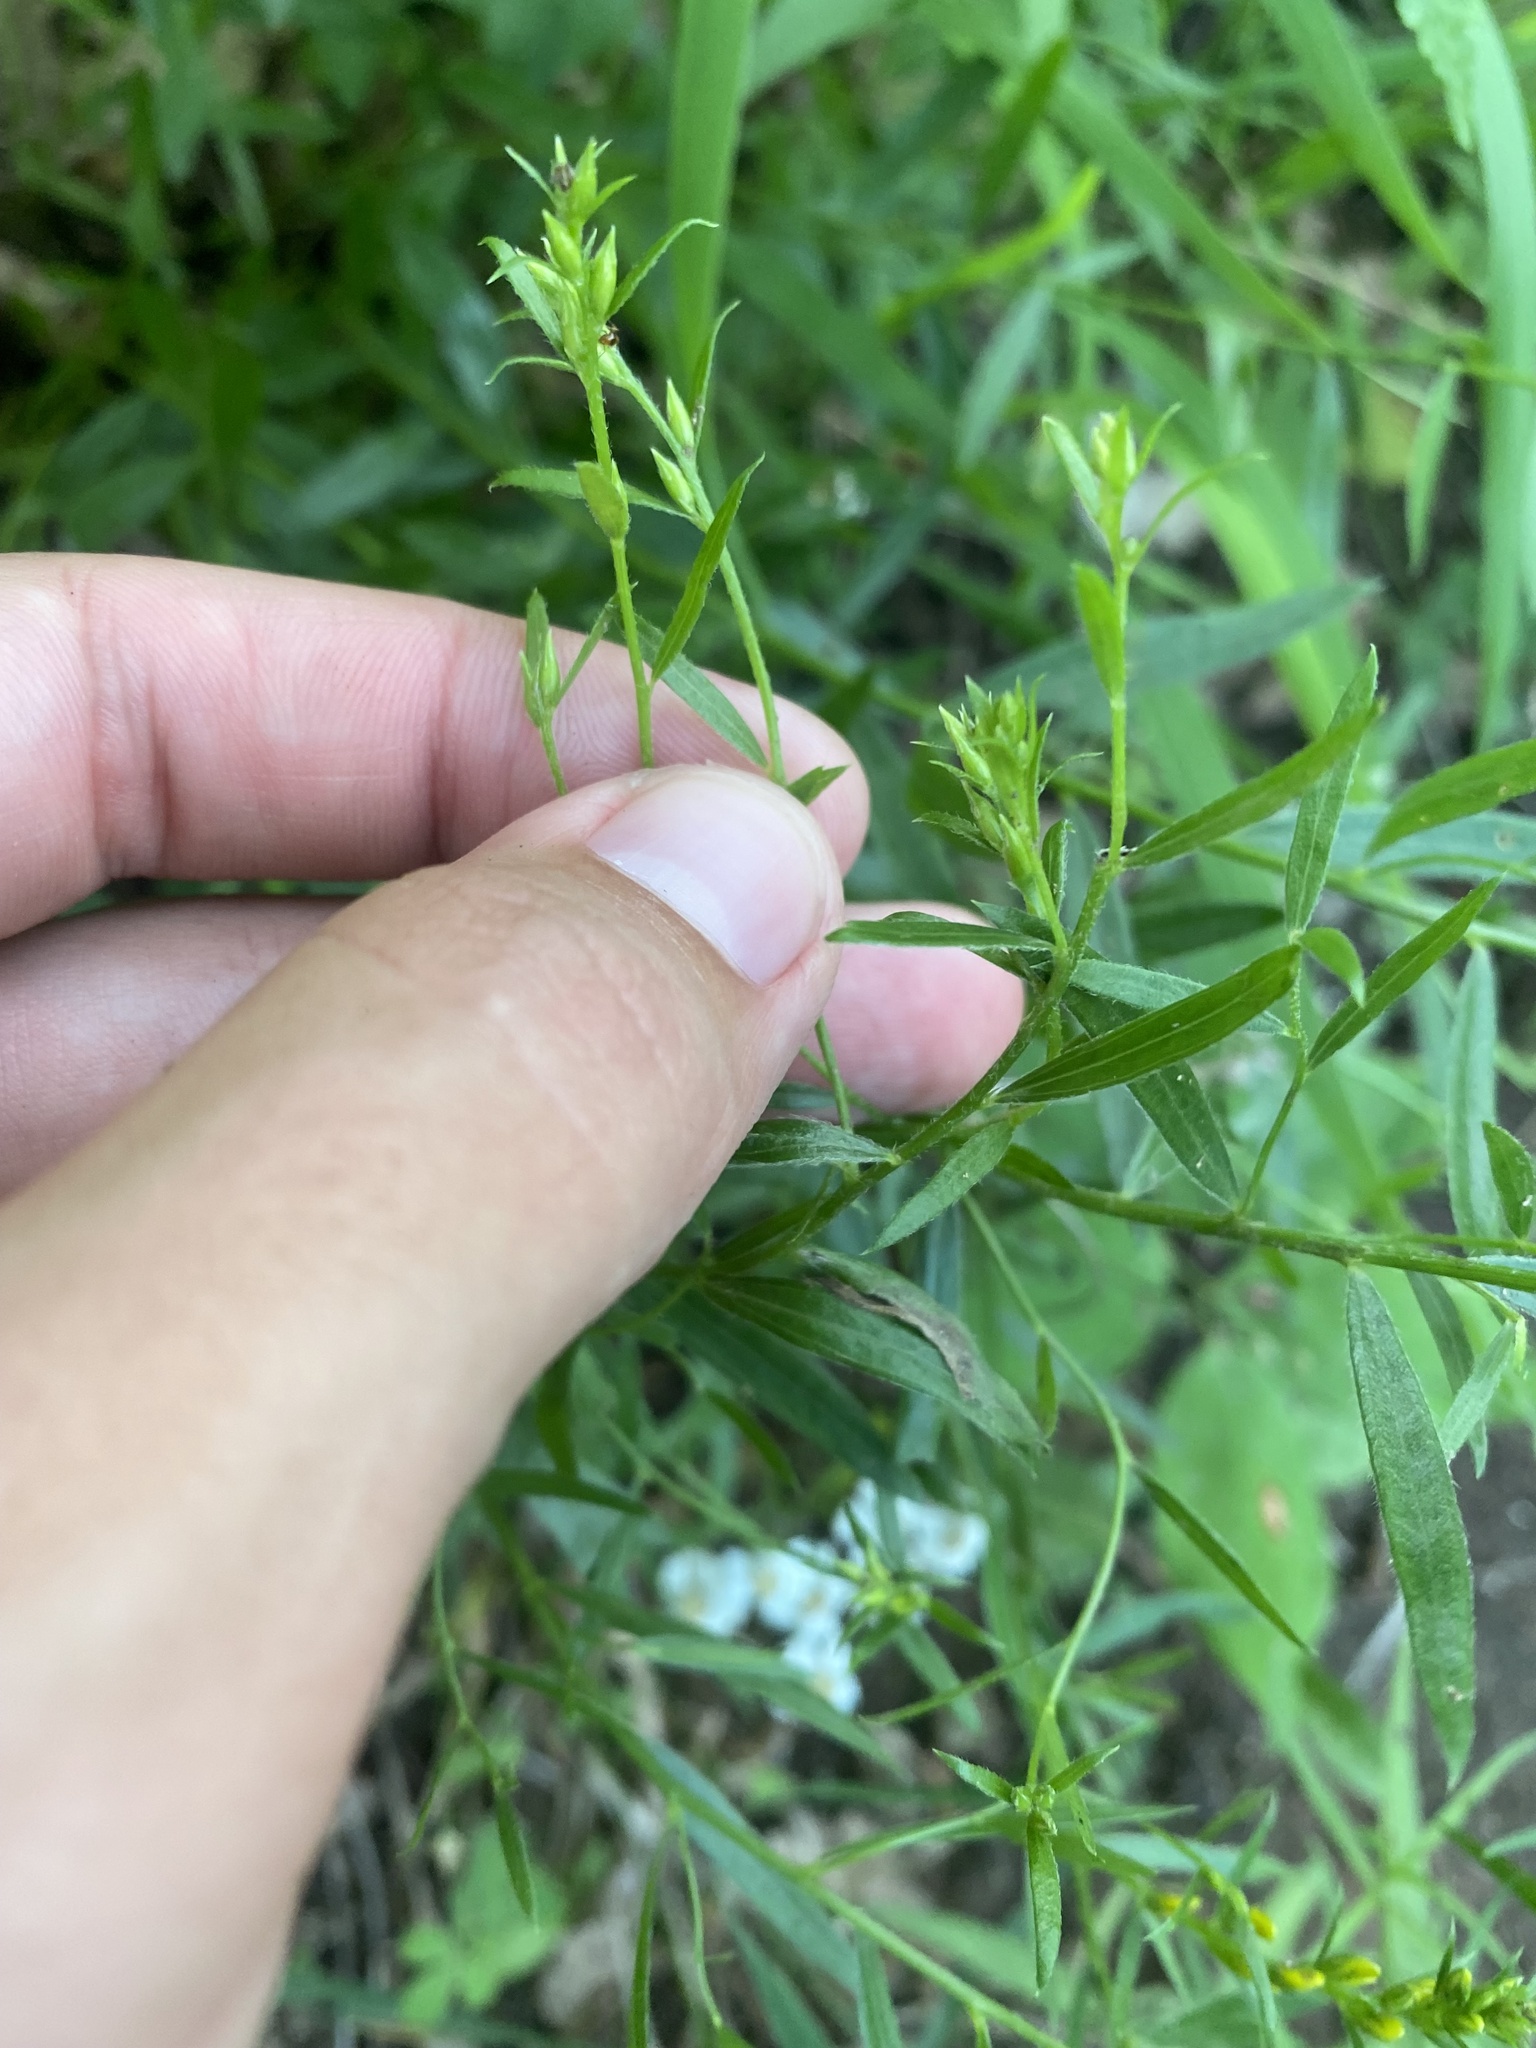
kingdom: Plantae
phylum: Tracheophyta
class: Magnoliopsida
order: Fabales
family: Fabaceae
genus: Genista
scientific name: Genista tinctoria
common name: Dyer's greenweed
